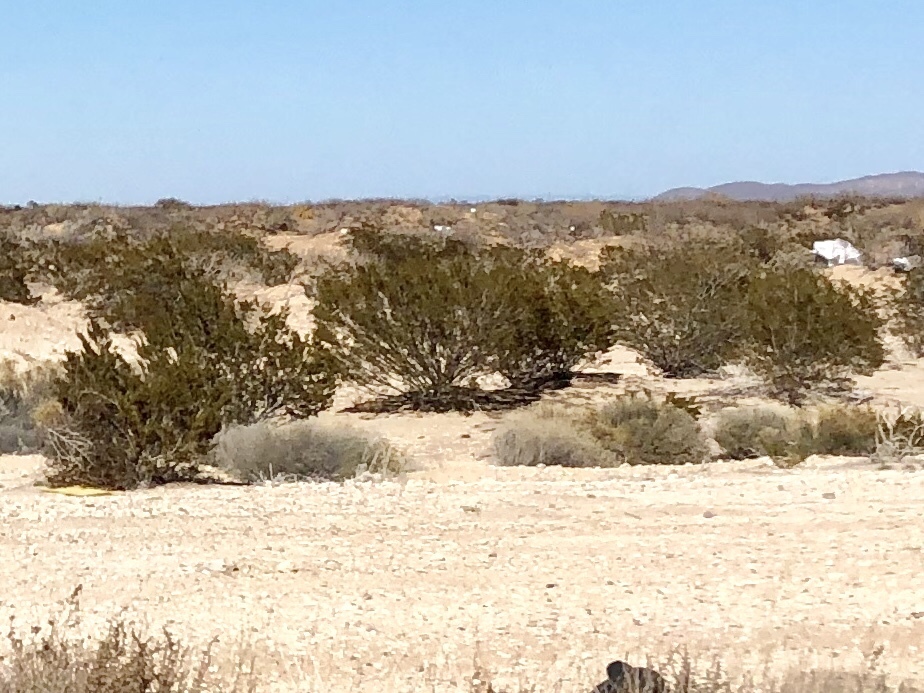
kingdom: Plantae
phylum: Tracheophyta
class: Magnoliopsida
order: Zygophyllales
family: Zygophyllaceae
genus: Larrea
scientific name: Larrea tridentata
